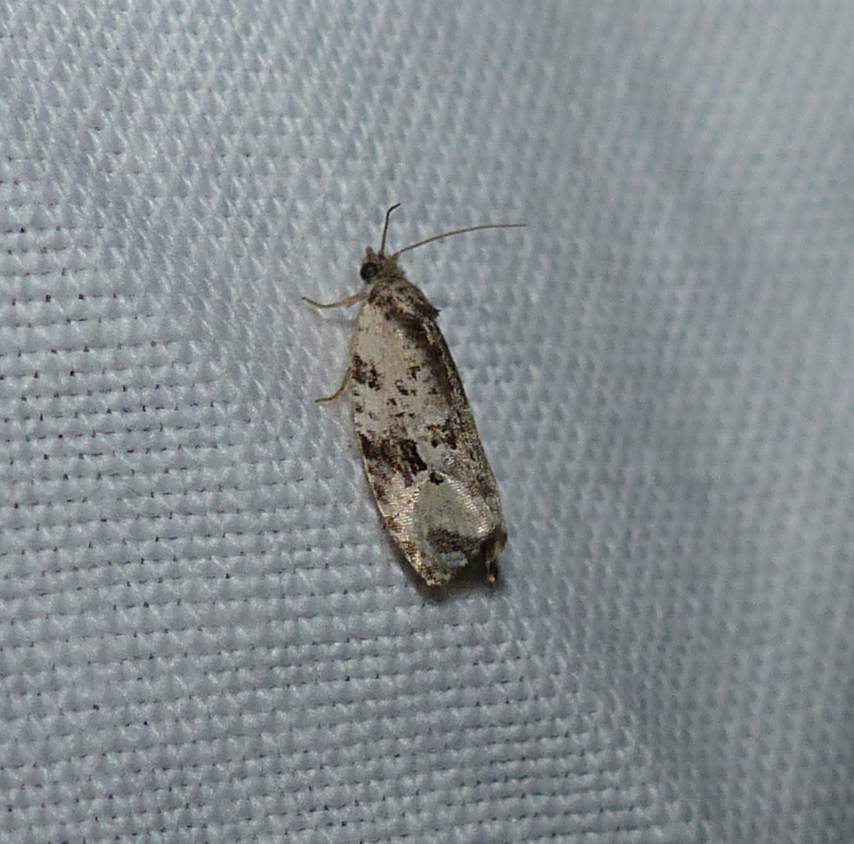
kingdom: Animalia
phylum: Arthropoda
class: Insecta
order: Lepidoptera
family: Tortricidae
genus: Apotomis
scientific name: Apotomis albeolana
